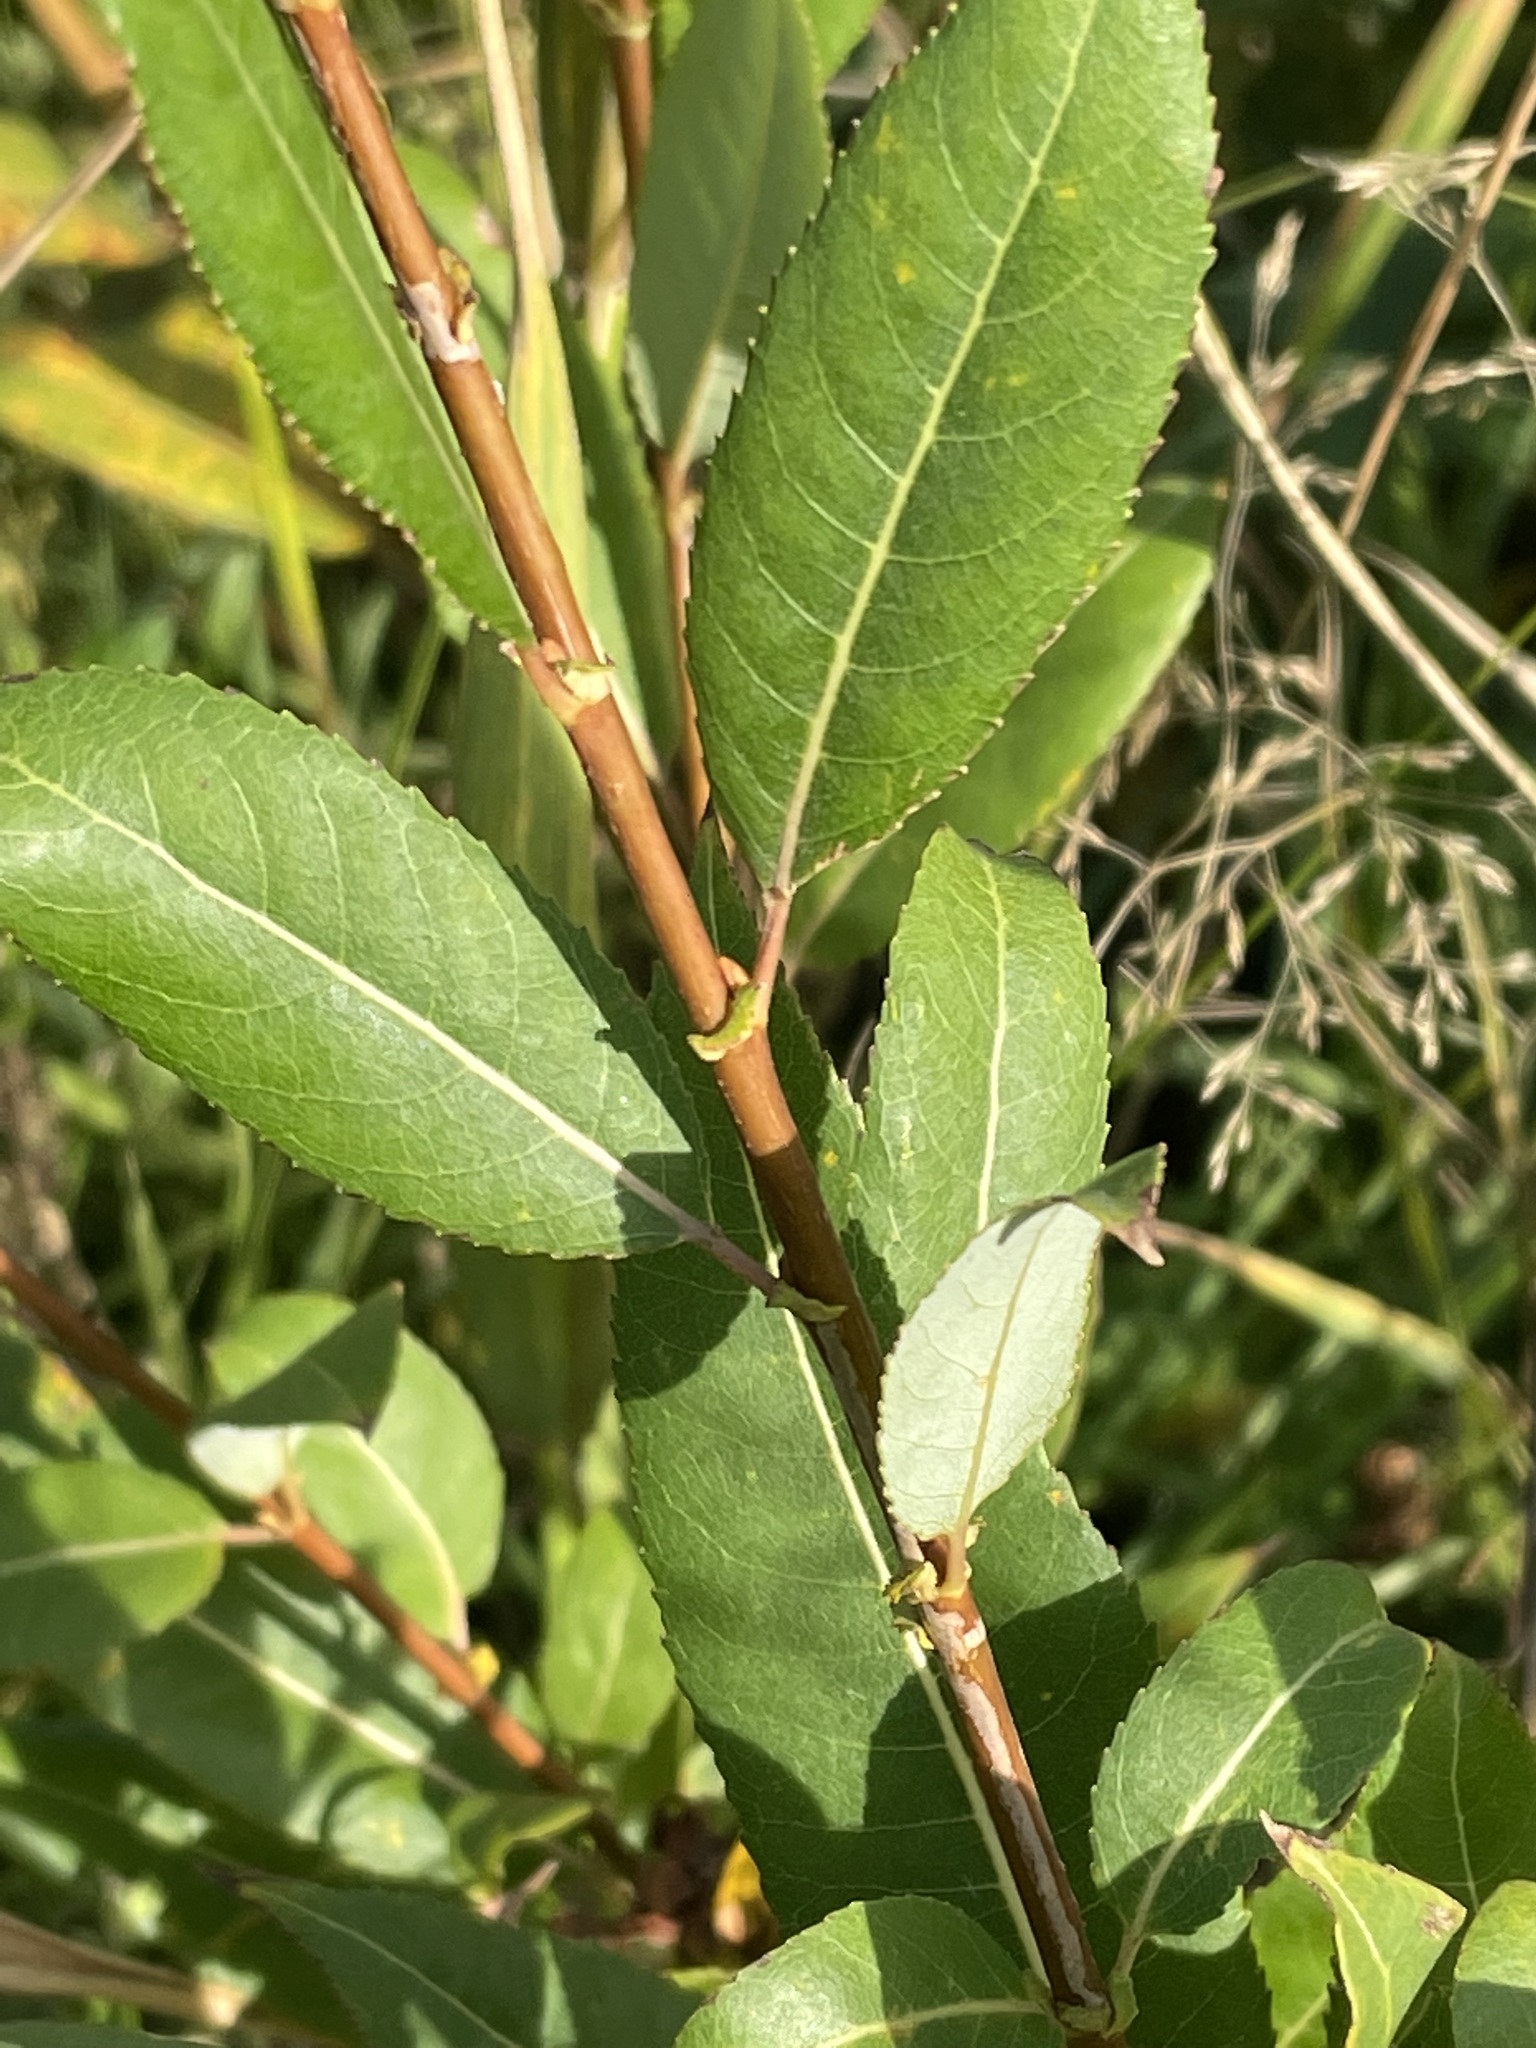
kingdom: Plantae
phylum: Tracheophyta
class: Magnoliopsida
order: Malpighiales
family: Salicaceae
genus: Salix
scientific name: Salix triandra
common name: Almond willow
